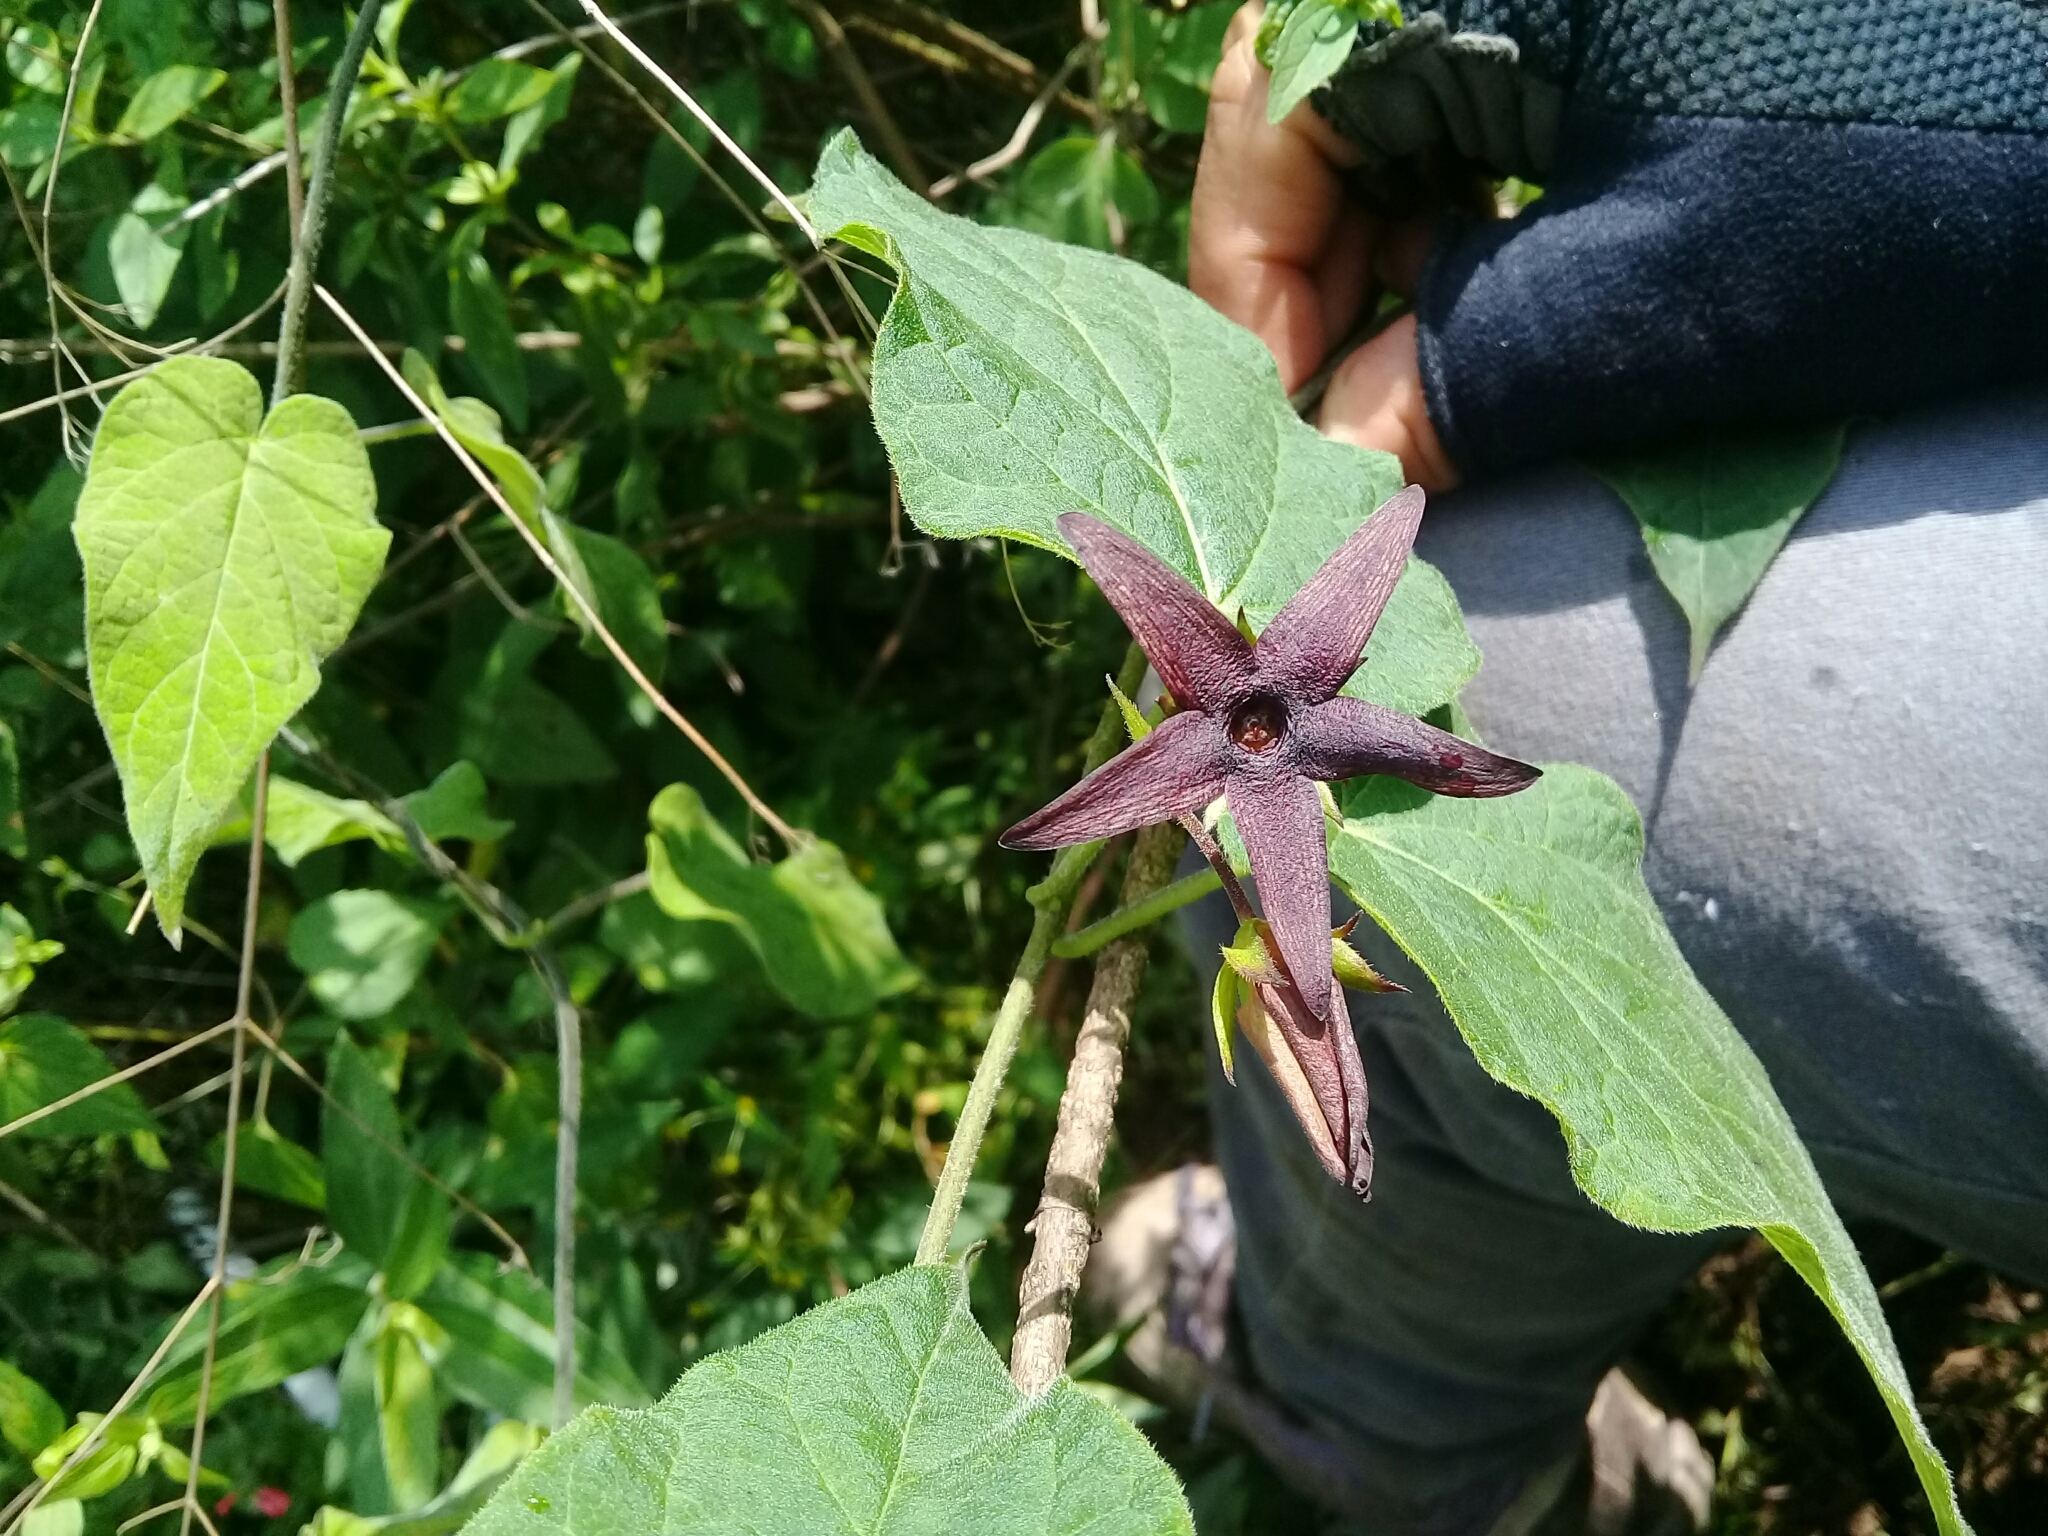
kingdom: Plantae
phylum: Tracheophyta
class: Magnoliopsida
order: Gentianales
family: Apocynaceae
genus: Matelea
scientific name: Matelea petiolaris
